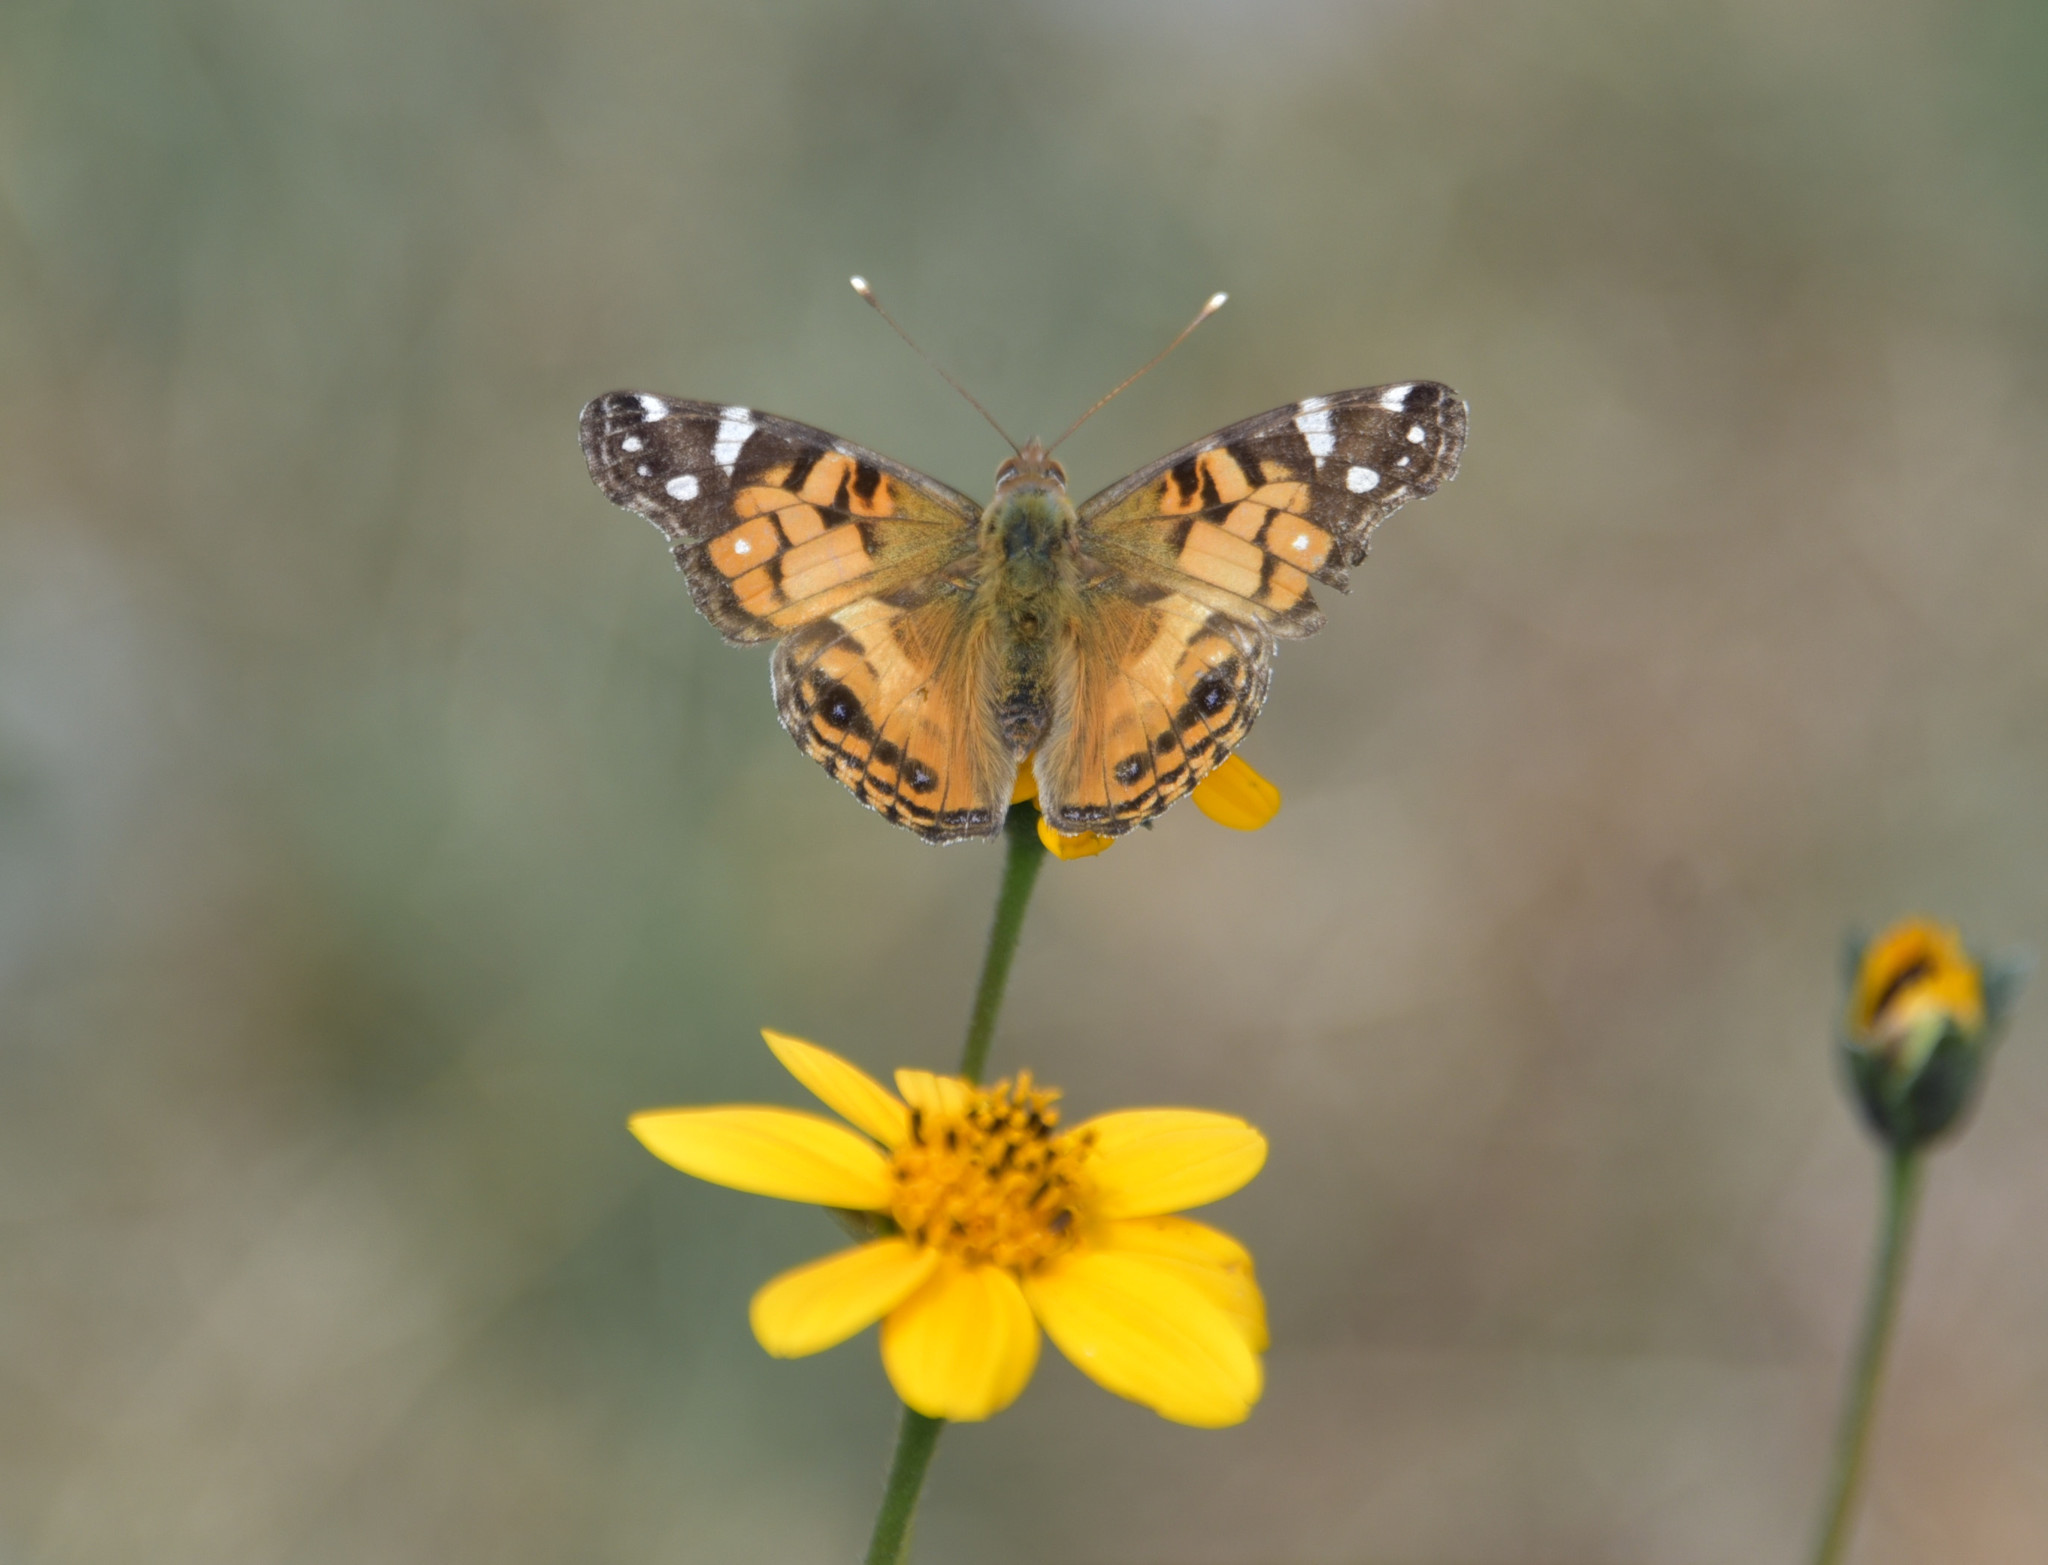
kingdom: Animalia
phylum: Arthropoda
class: Insecta
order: Lepidoptera
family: Nymphalidae
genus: Vanessa
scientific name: Vanessa virginiensis
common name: American lady
